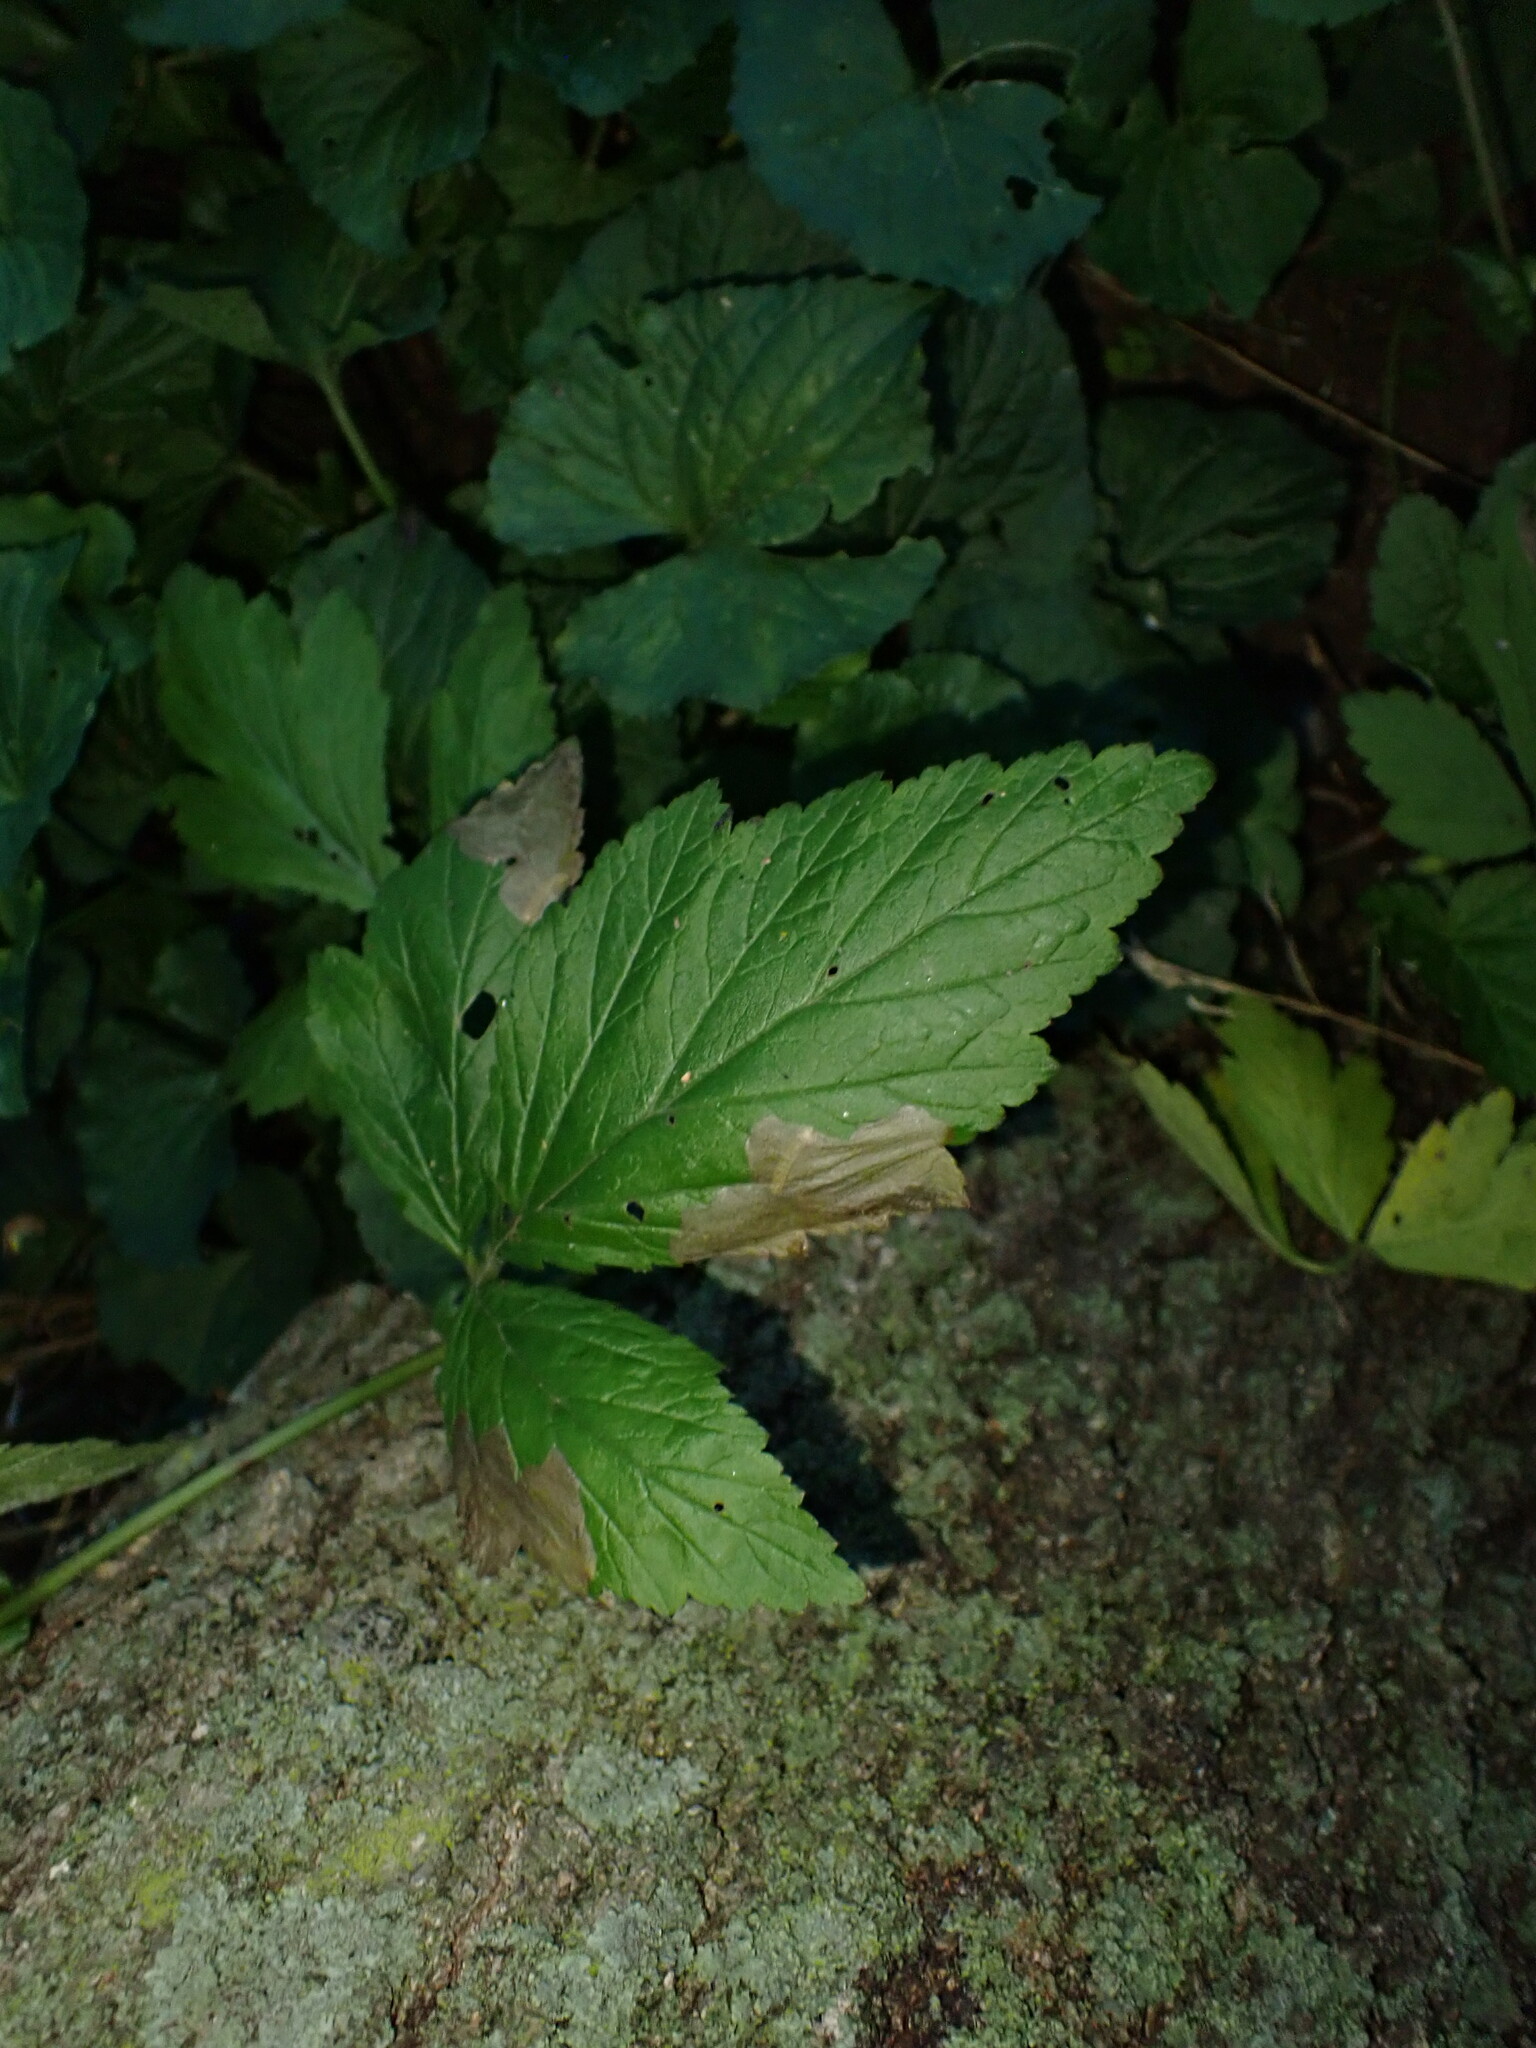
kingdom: Animalia
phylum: Arthropoda
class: Insecta
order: Hymenoptera
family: Tenthredinidae
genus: Metallus
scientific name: Metallus lanceolatus
